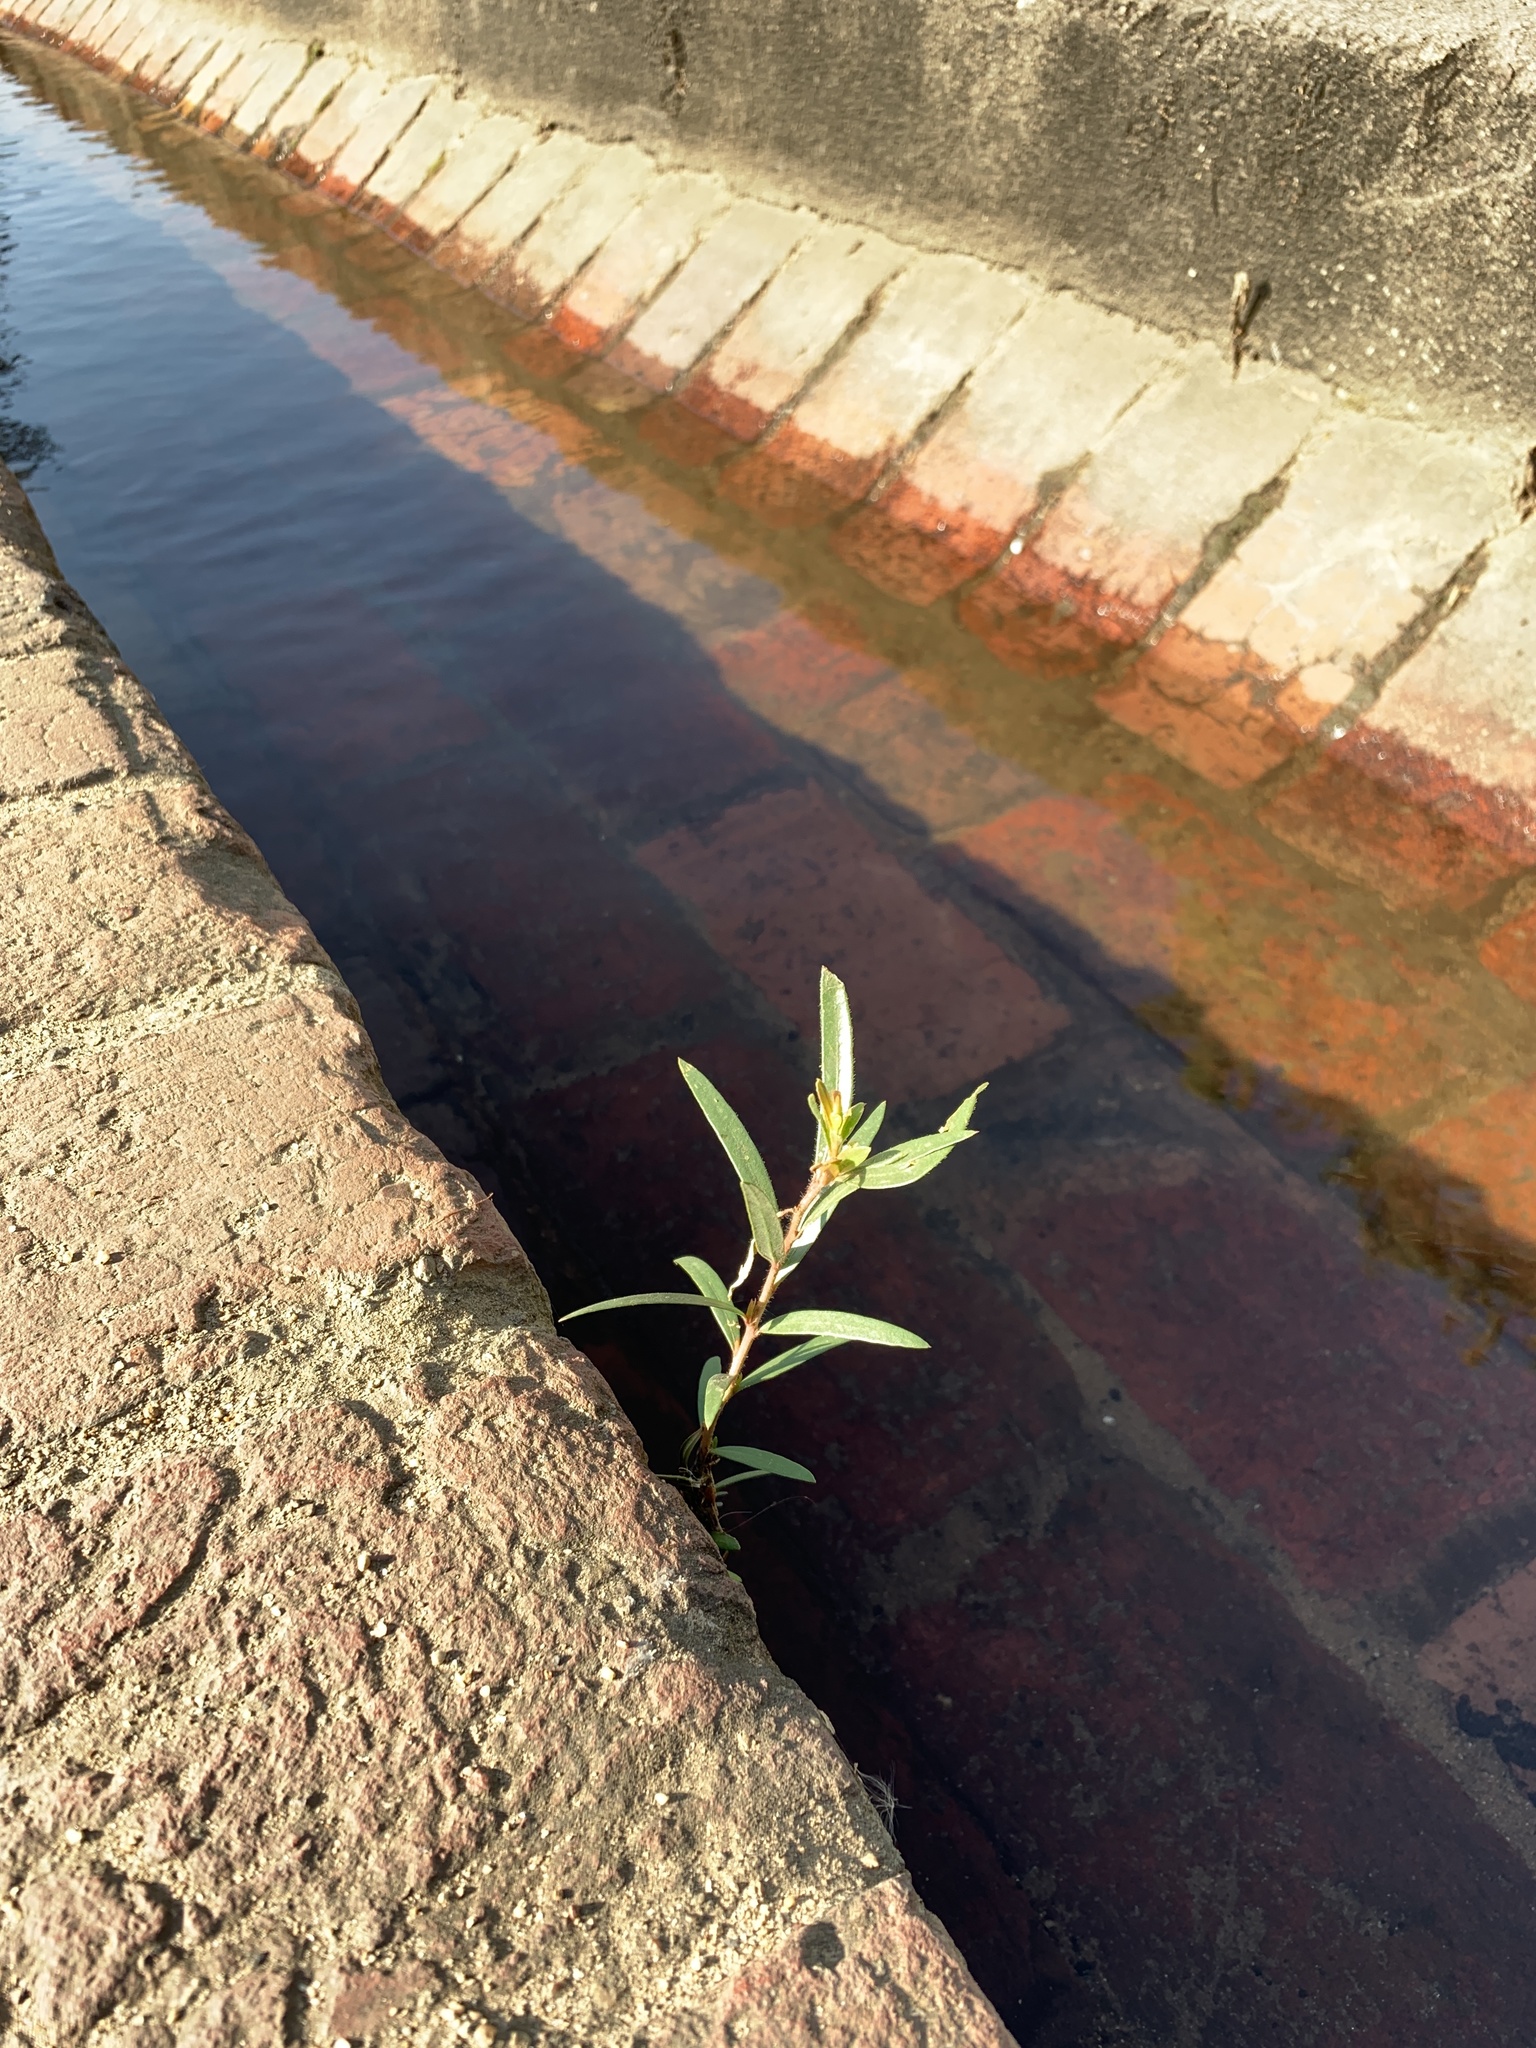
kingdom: Plantae
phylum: Tracheophyta
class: Magnoliopsida
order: Myrtales
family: Myrtaceae
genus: Callistemon
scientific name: Callistemon viminalis
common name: Drooping bottlebrush
